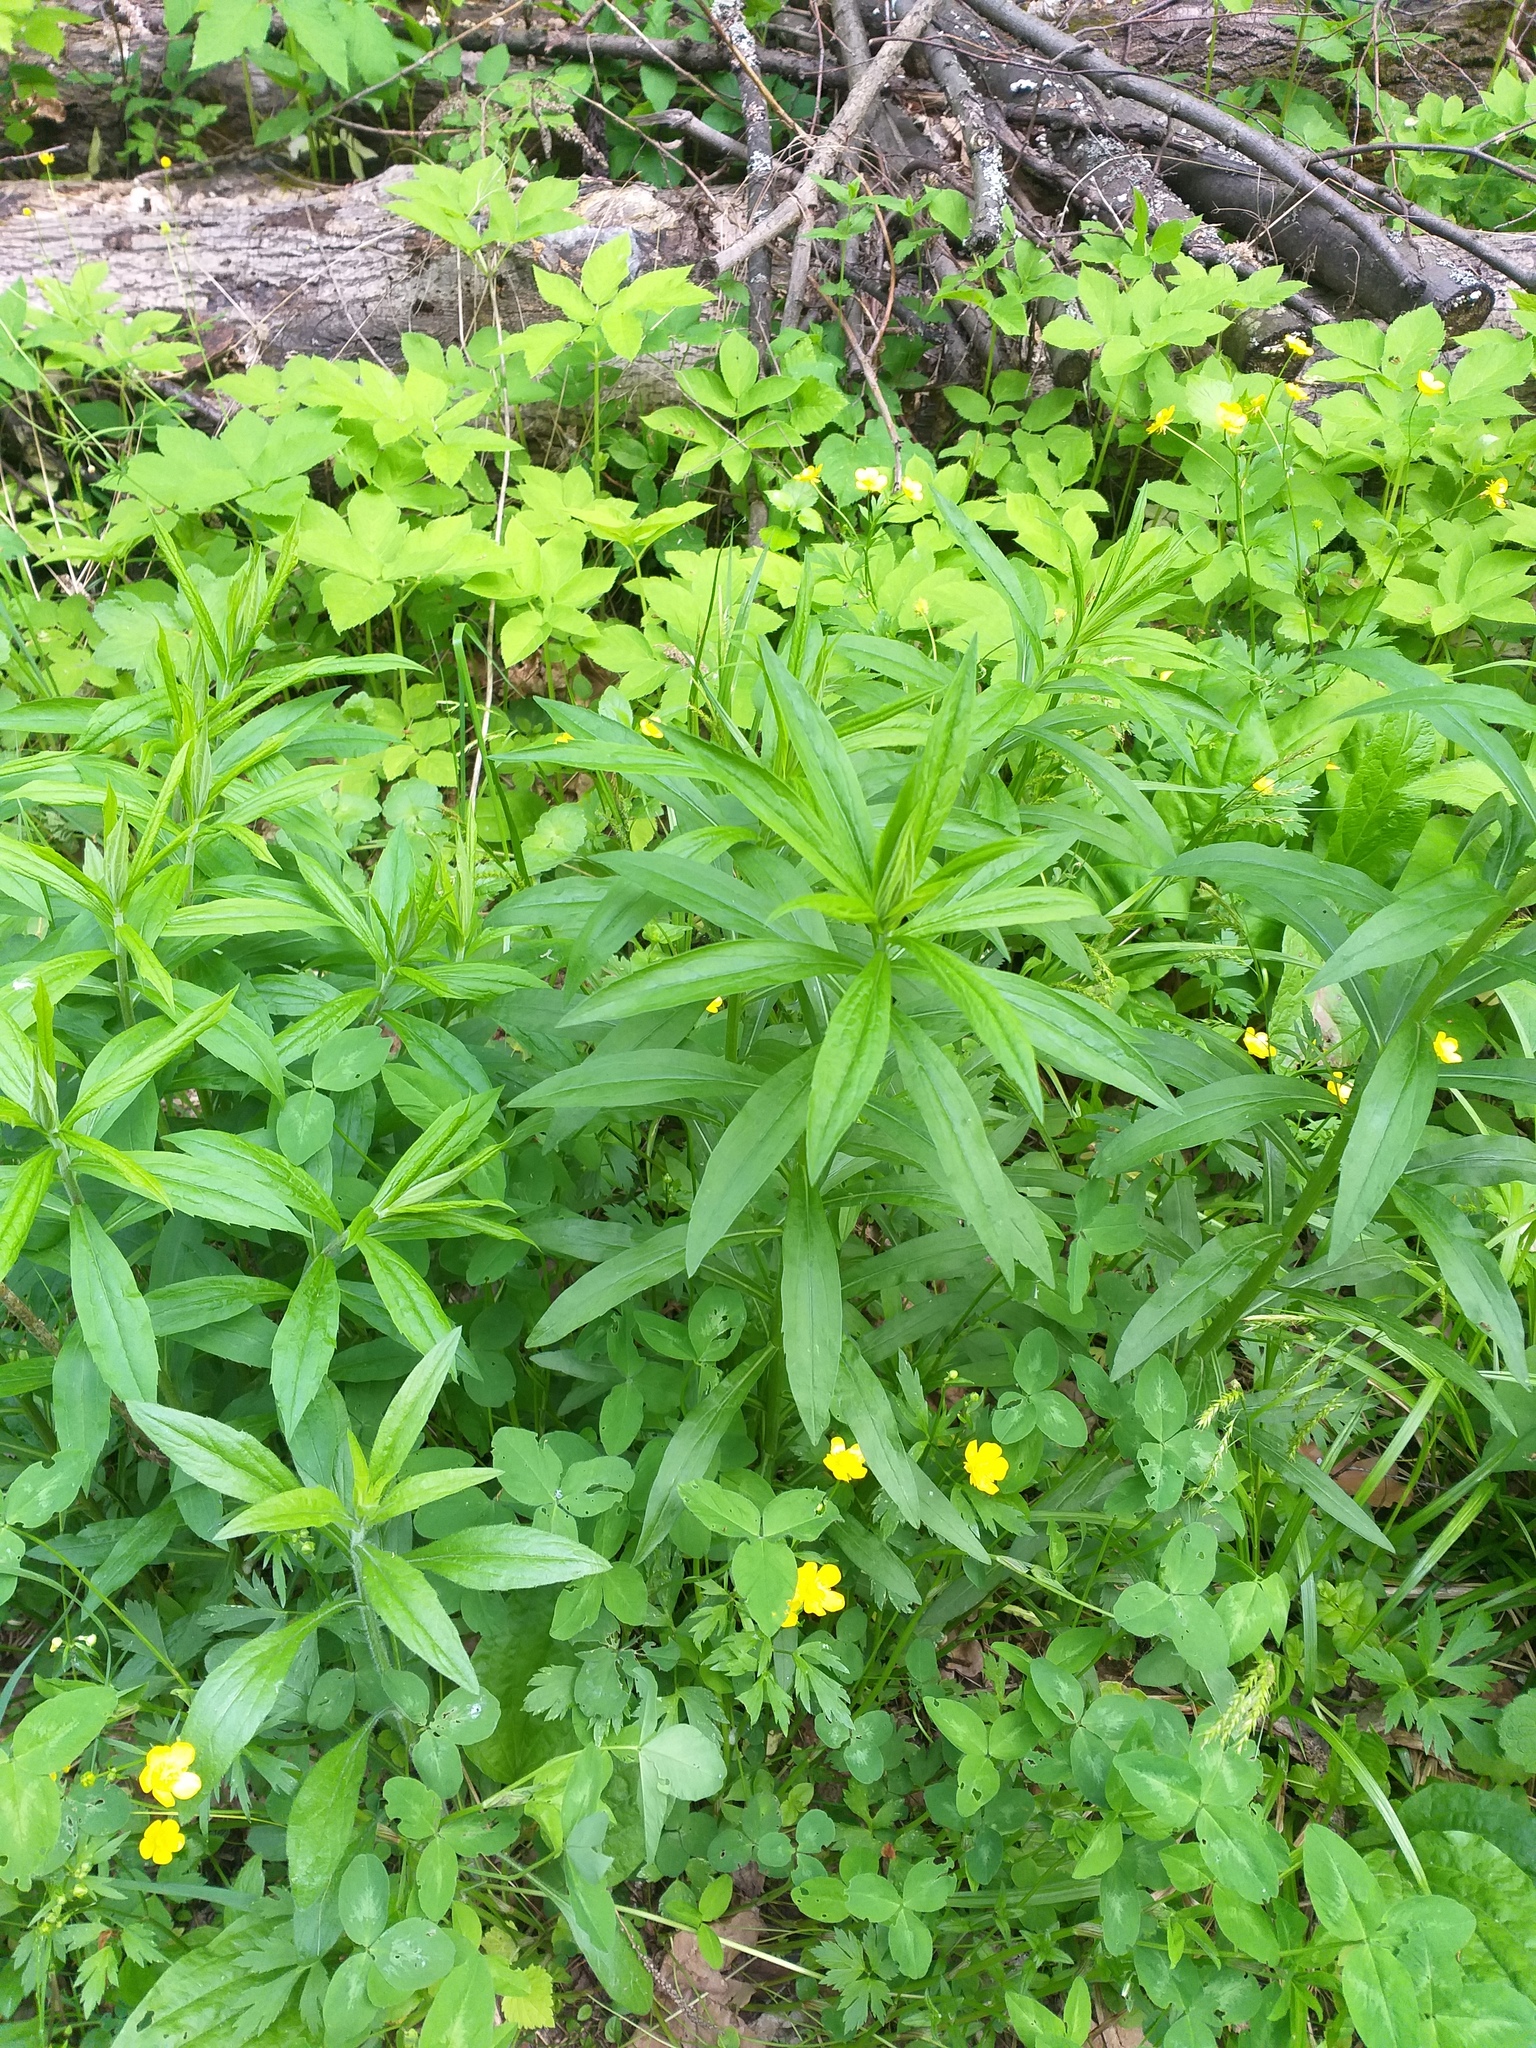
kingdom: Plantae
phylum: Tracheophyta
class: Magnoliopsida
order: Asterales
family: Asteraceae
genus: Solidago
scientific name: Solidago canadensis
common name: Canada goldenrod
